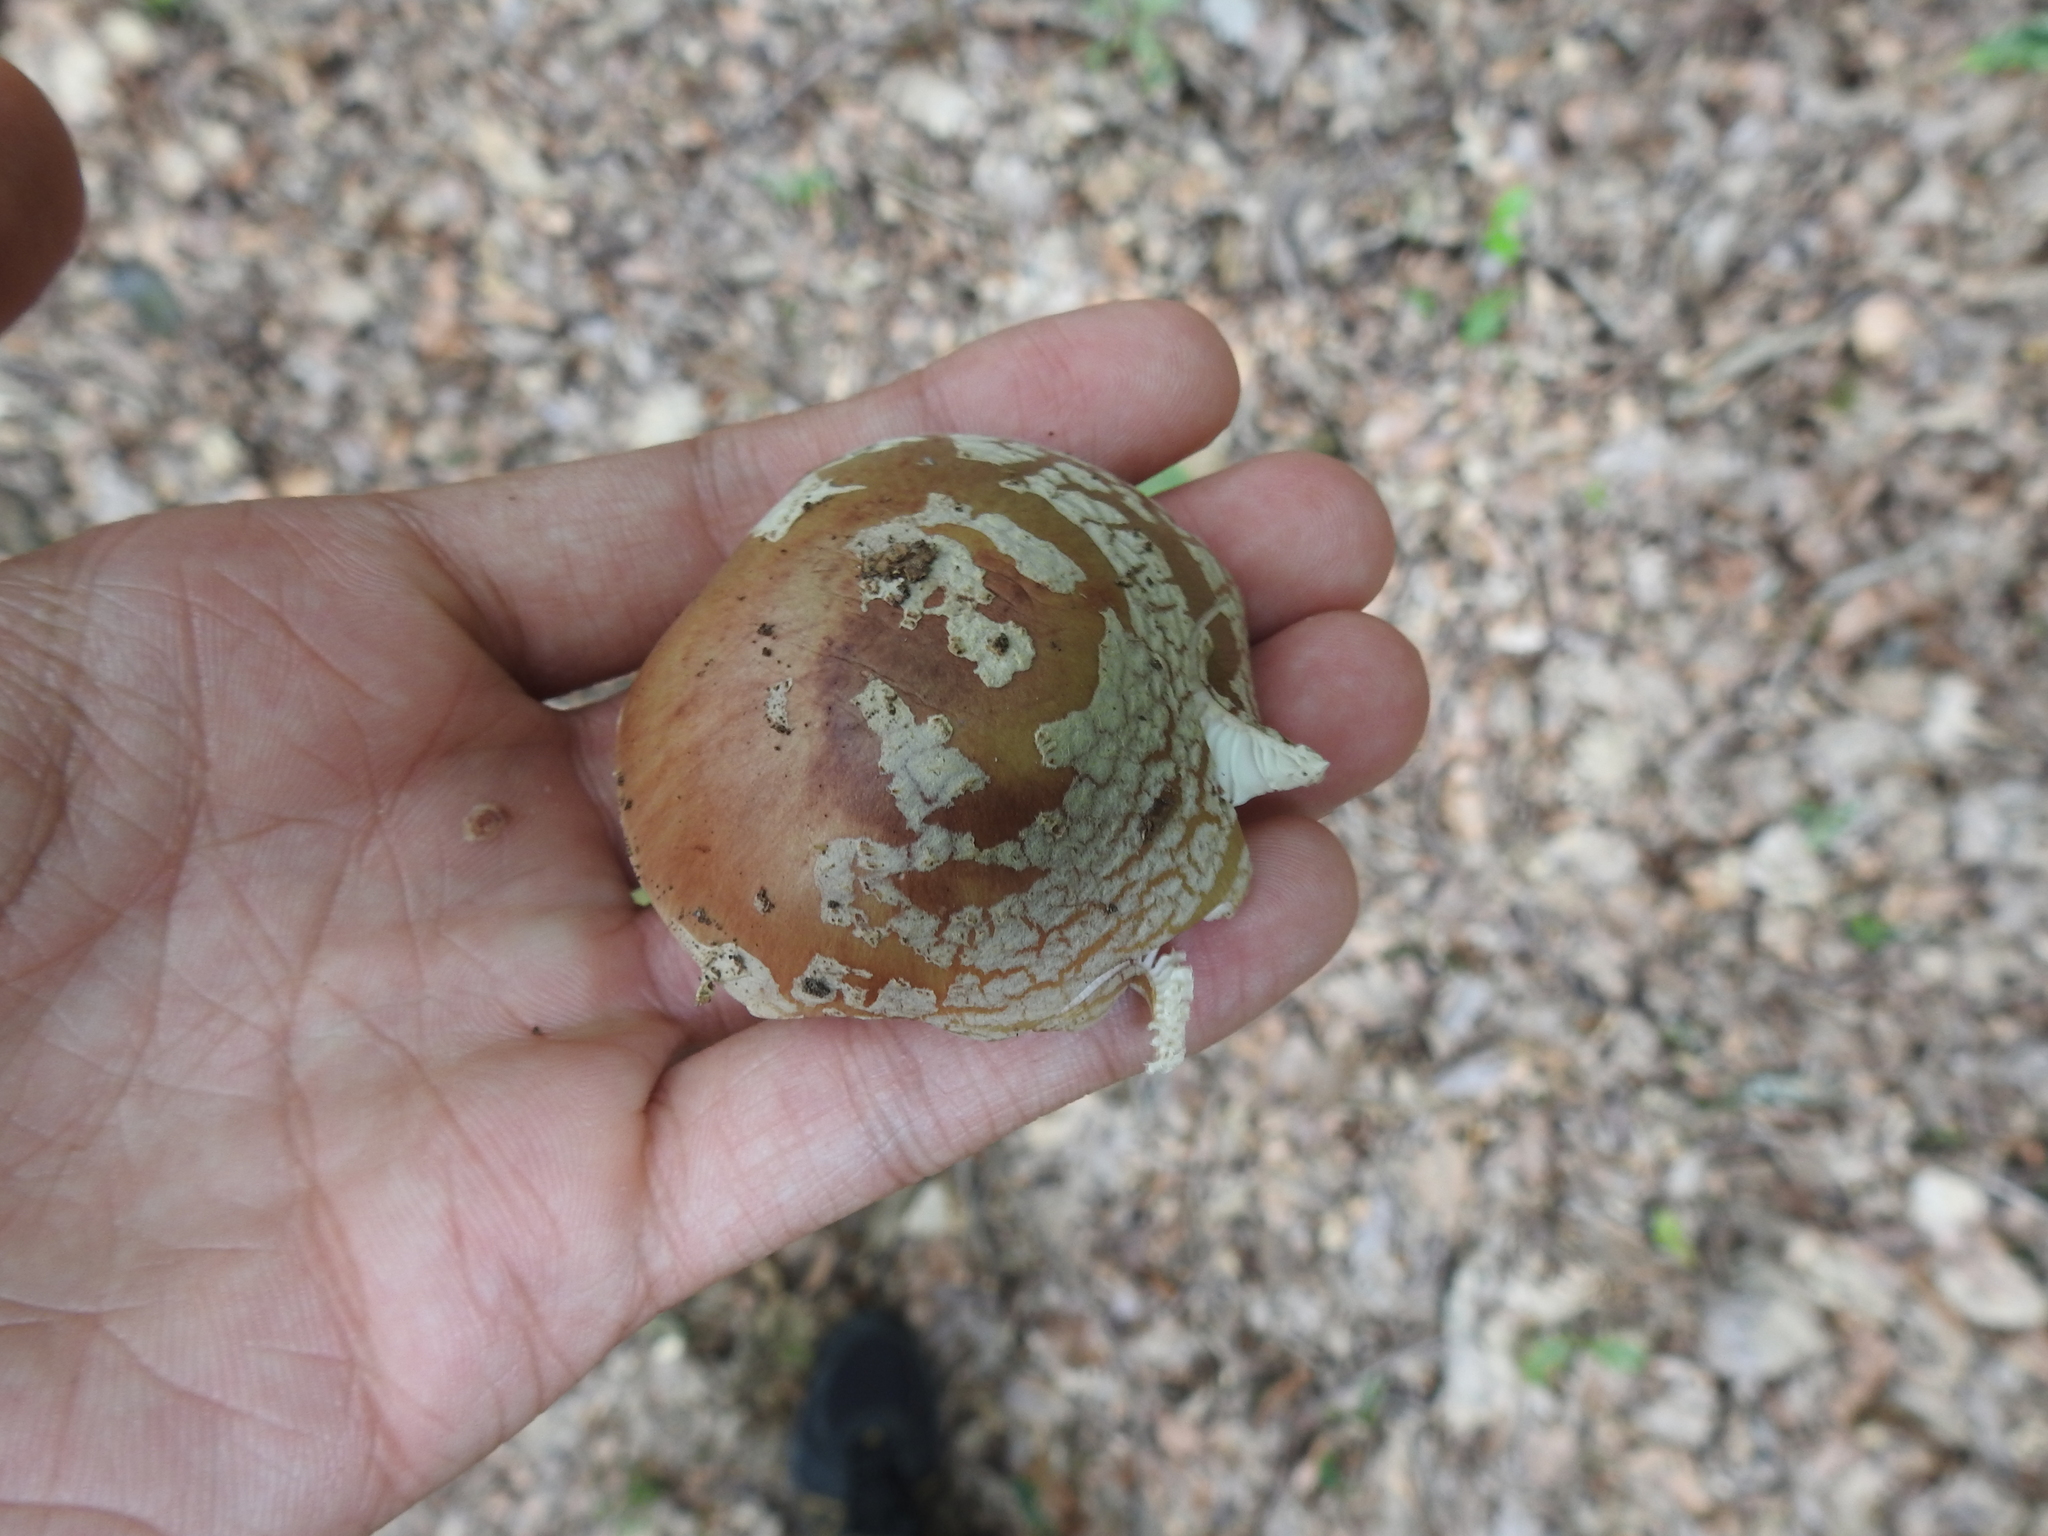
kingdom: Fungi
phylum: Basidiomycota
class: Agaricomycetes
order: Agaricales
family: Amanitaceae
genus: Amanita
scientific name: Amanita rubescens
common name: Blusher
